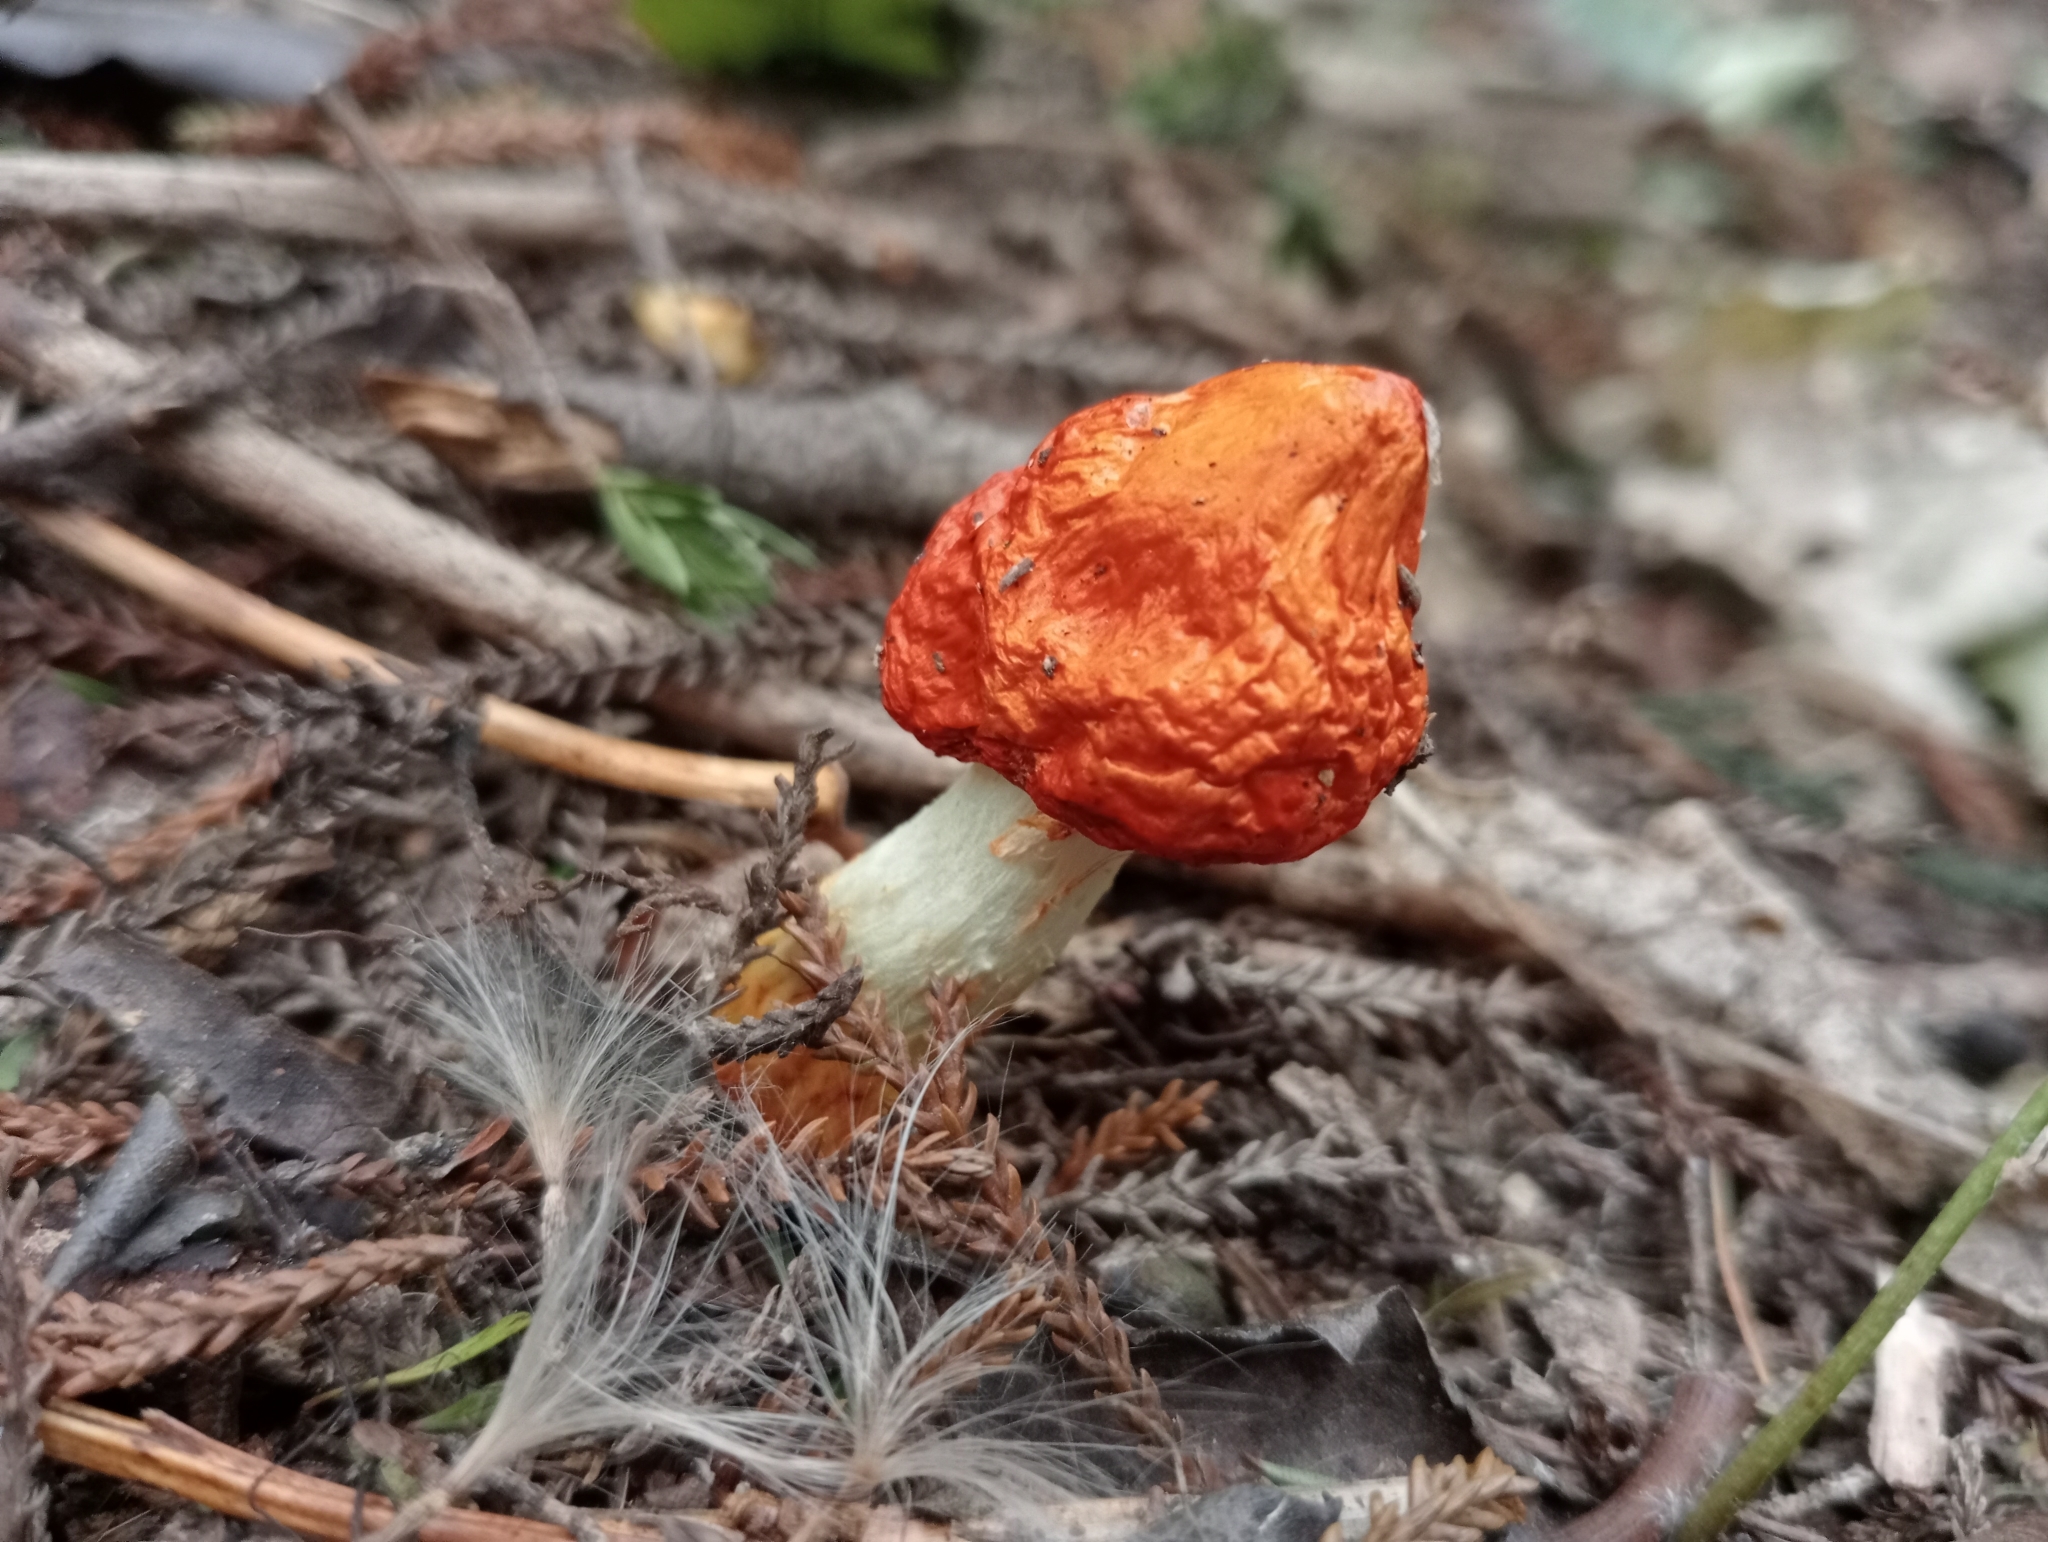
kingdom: Fungi
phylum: Basidiomycota
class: Agaricomycetes
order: Agaricales
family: Strophariaceae
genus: Leratiomyces
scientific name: Leratiomyces erythrocephalus
